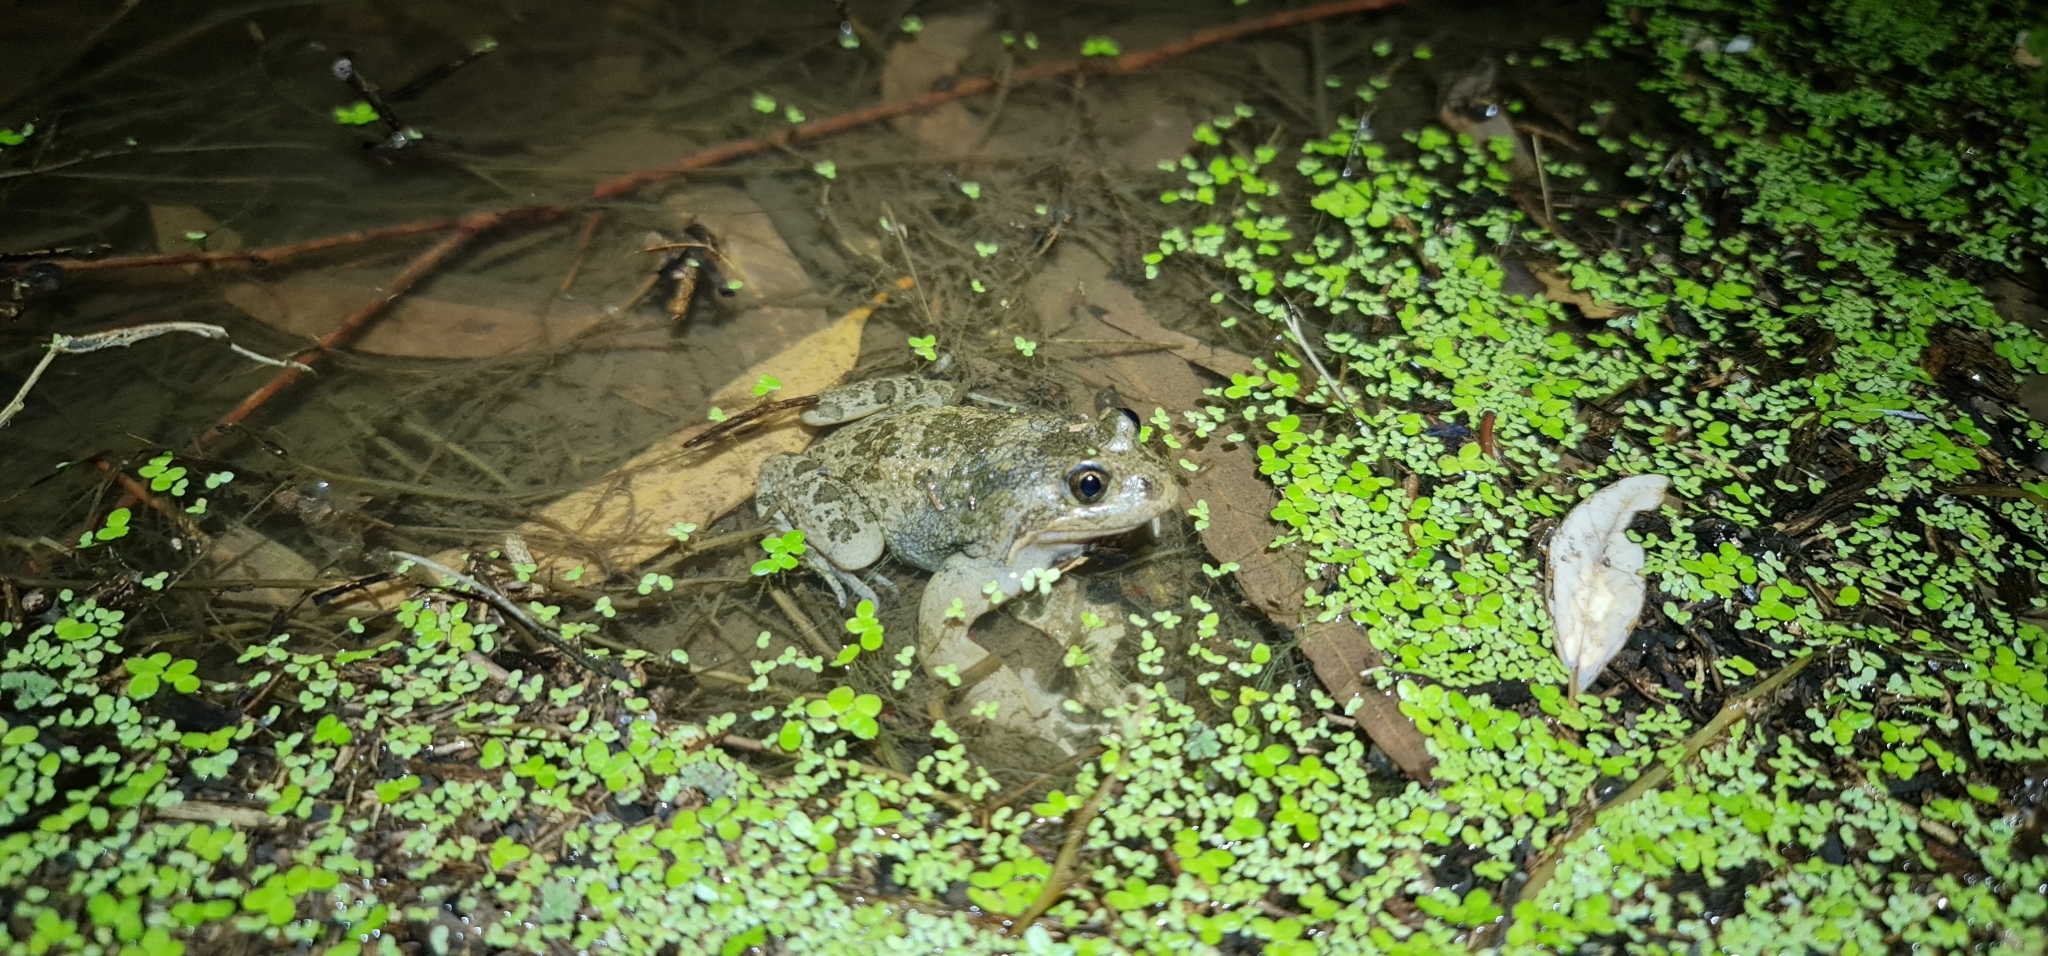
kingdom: Animalia
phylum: Chordata
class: Amphibia
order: Anura
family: Limnodynastidae
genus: Limnodynastes
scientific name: Limnodynastes fletcheri
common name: Barking frog
